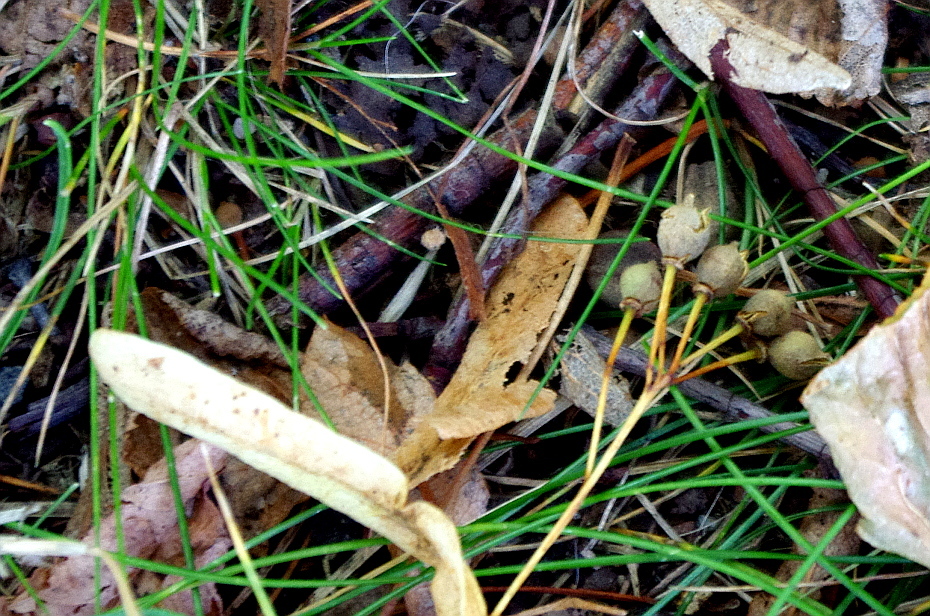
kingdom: Plantae
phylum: Tracheophyta
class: Magnoliopsida
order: Malvales
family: Malvaceae
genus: Tilia
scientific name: Tilia cordata
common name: Small-leaved lime
